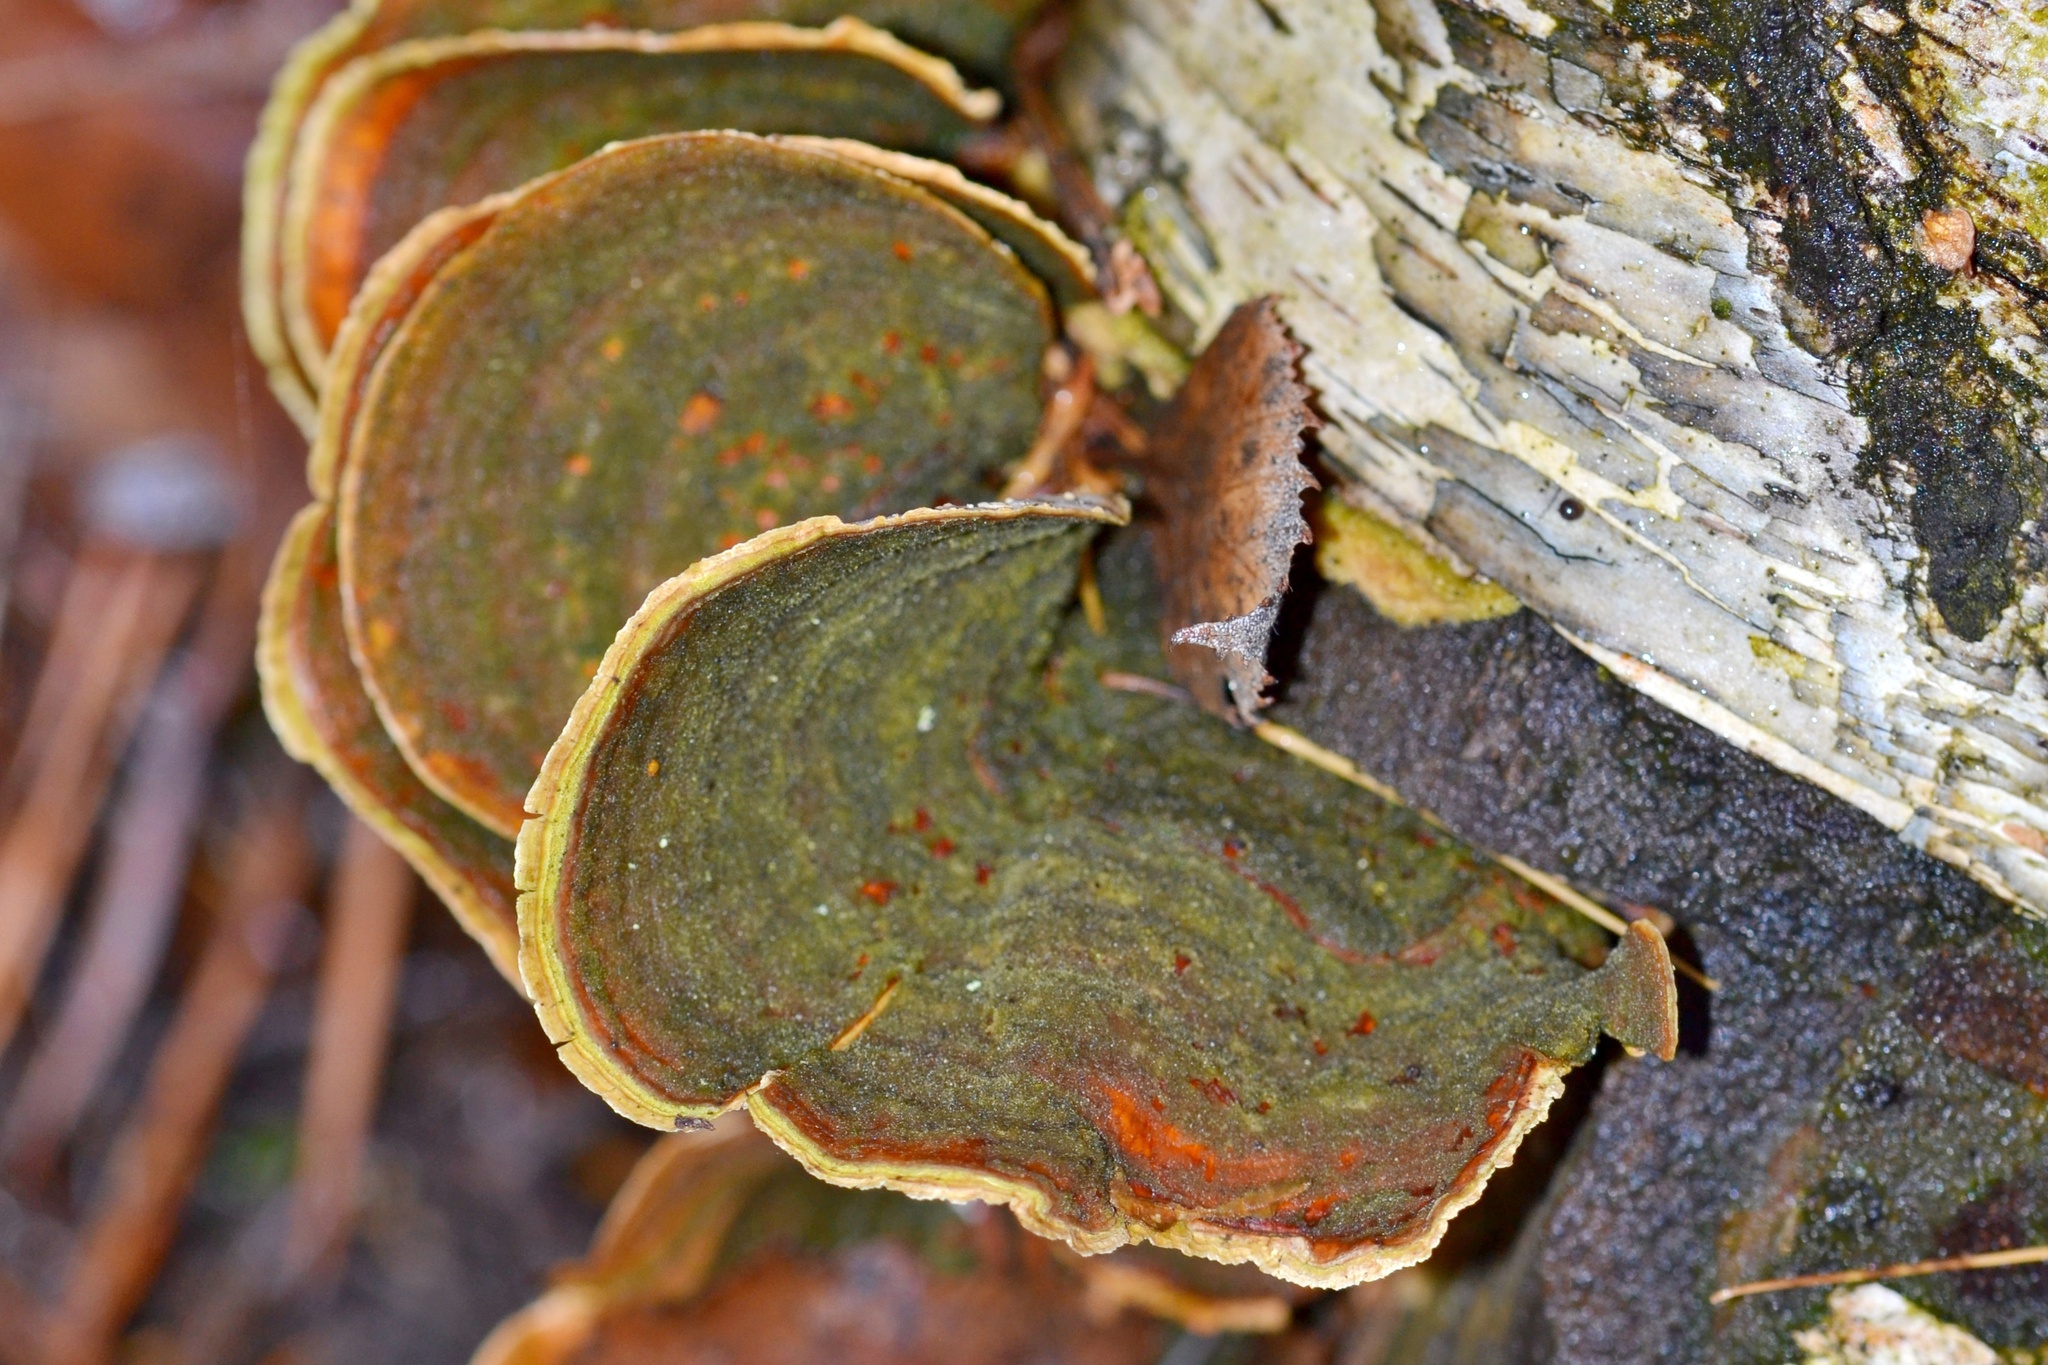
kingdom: Fungi
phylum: Basidiomycota
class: Agaricomycetes
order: Russulales
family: Stereaceae
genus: Stereum
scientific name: Stereum ostrea
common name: False turkeytail
